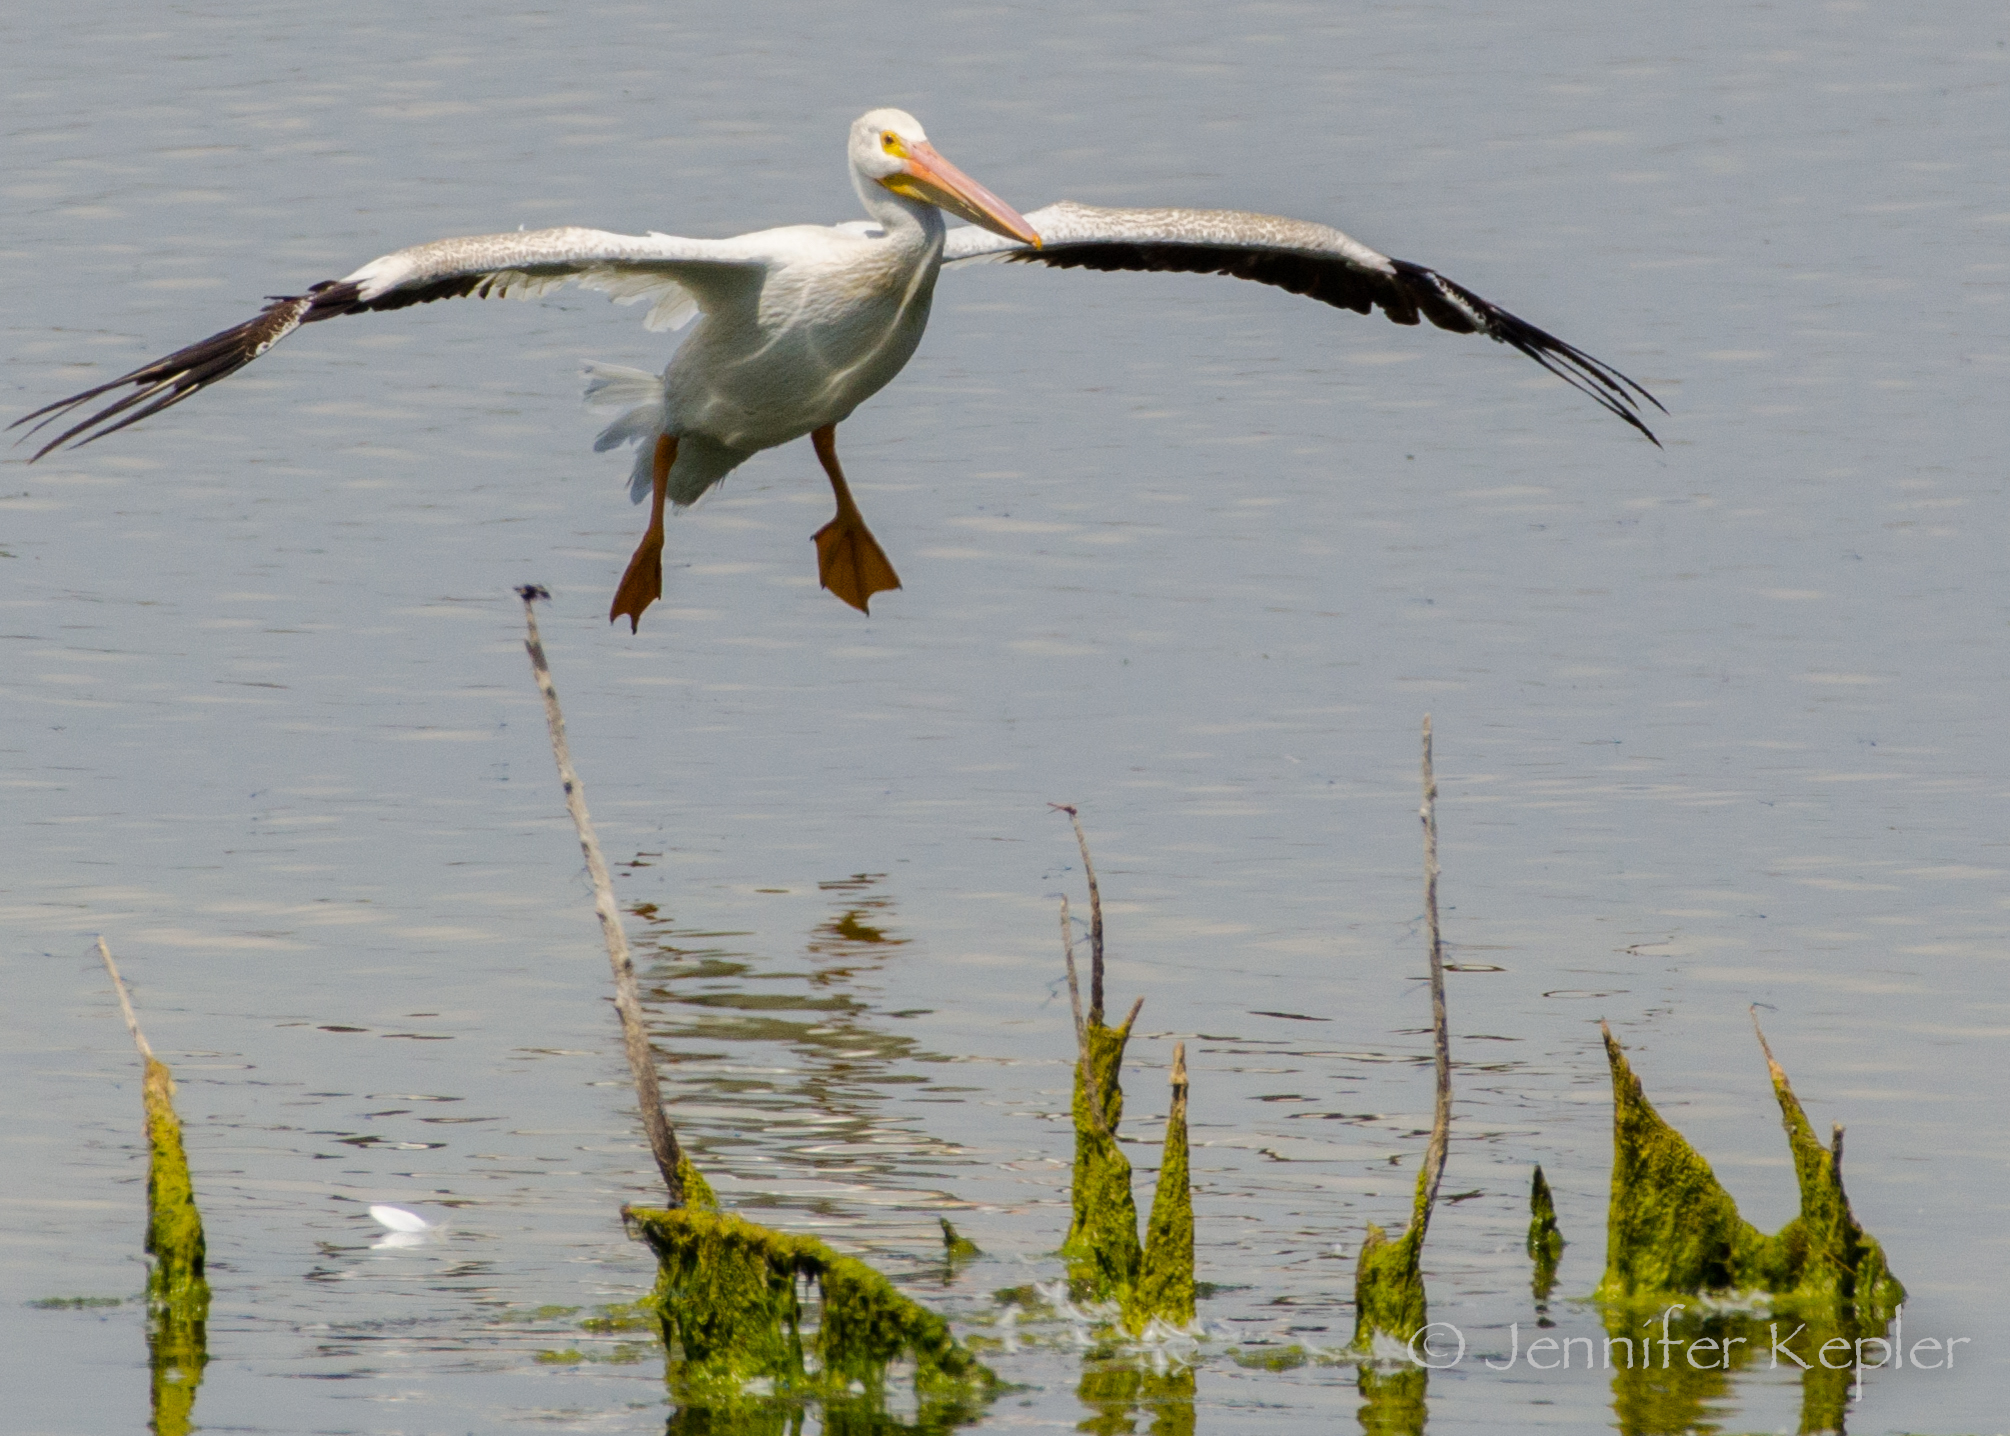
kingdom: Animalia
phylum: Chordata
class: Aves
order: Pelecaniformes
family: Pelecanidae
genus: Pelecanus
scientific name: Pelecanus erythrorhynchos
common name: American white pelican
